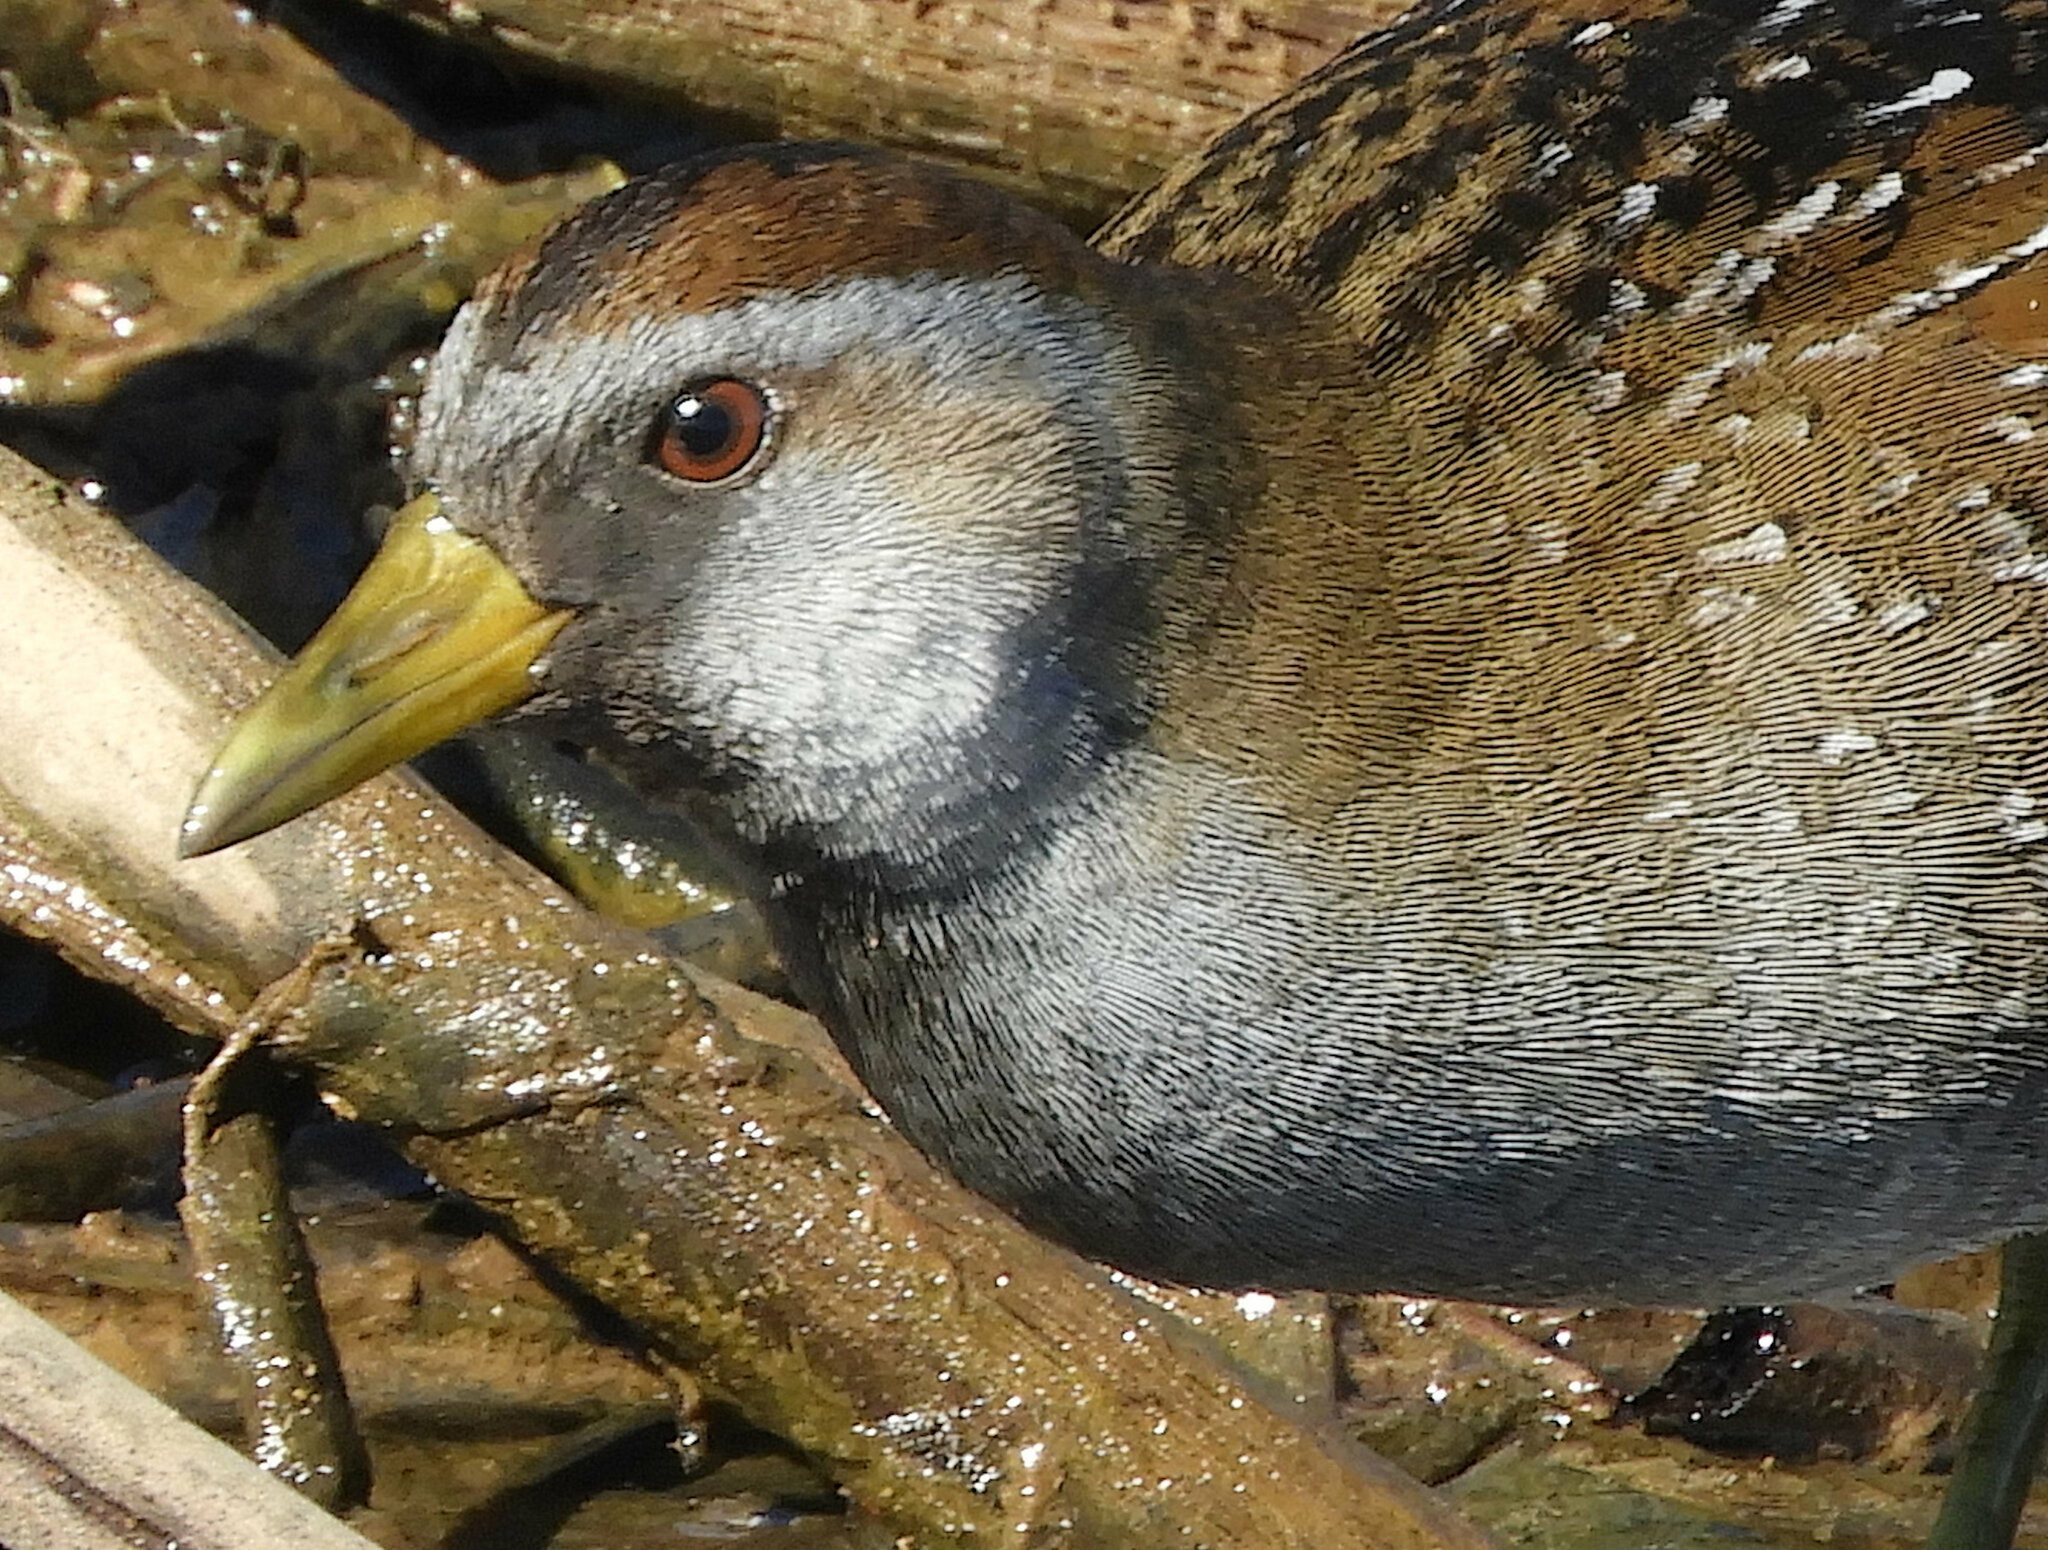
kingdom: Animalia
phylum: Chordata
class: Aves
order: Gruiformes
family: Rallidae
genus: Porzana
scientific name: Porzana carolina
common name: Sora
